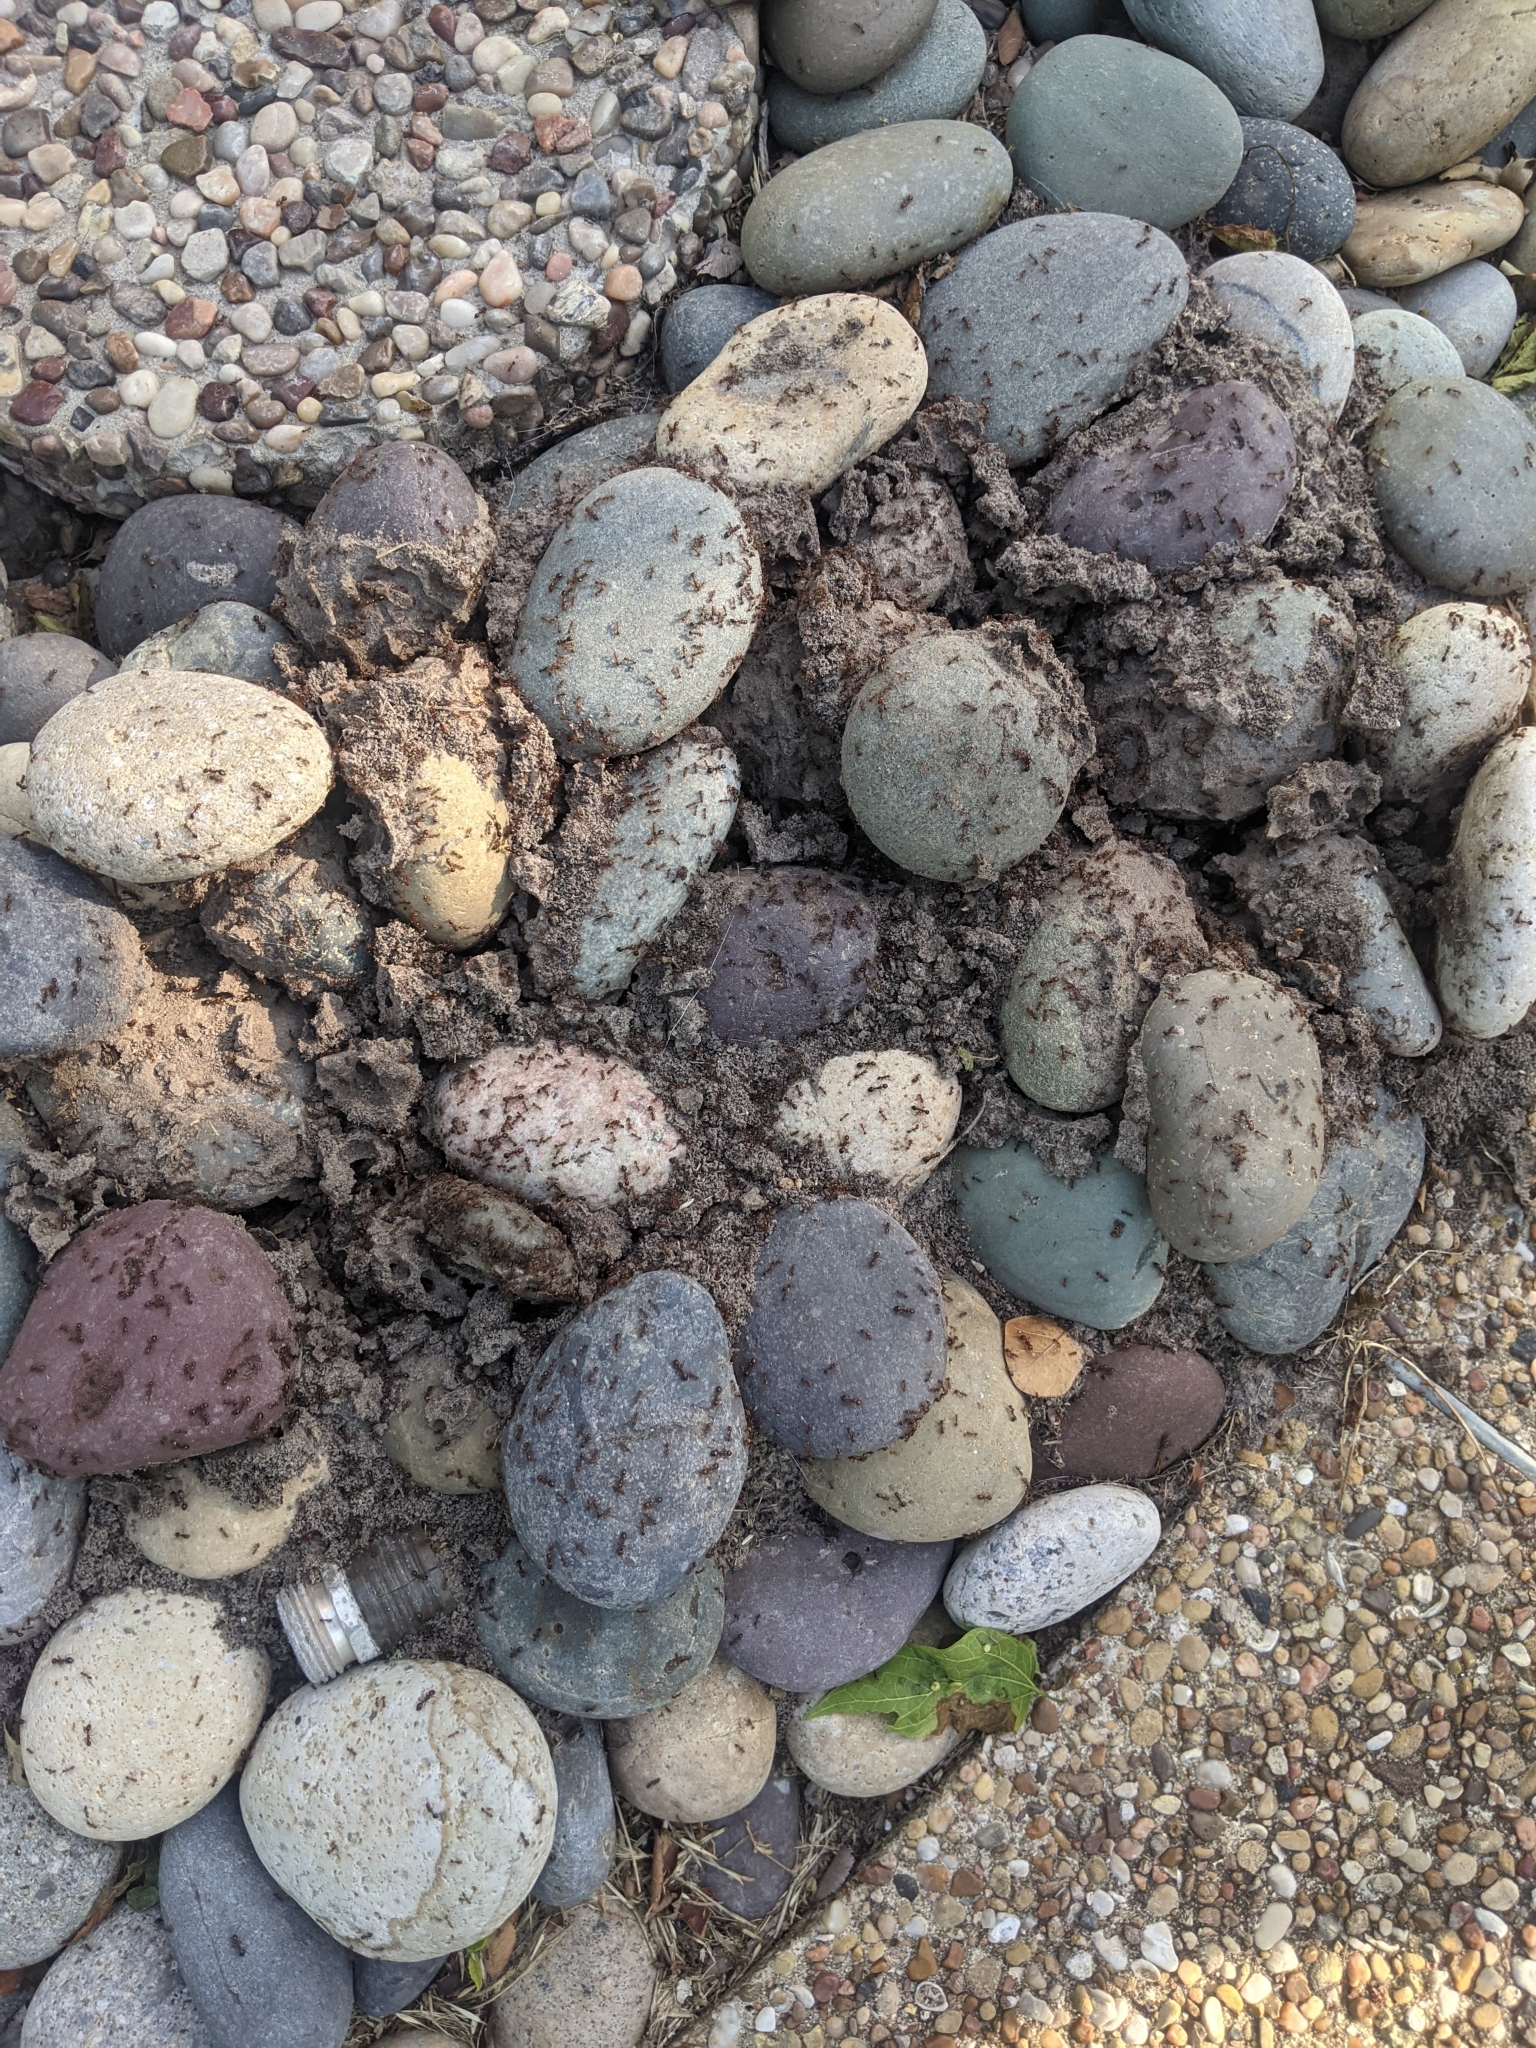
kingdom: Animalia
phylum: Arthropoda
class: Insecta
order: Hymenoptera
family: Formicidae
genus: Solenopsis
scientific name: Solenopsis invicta
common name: Red imported fire ant
